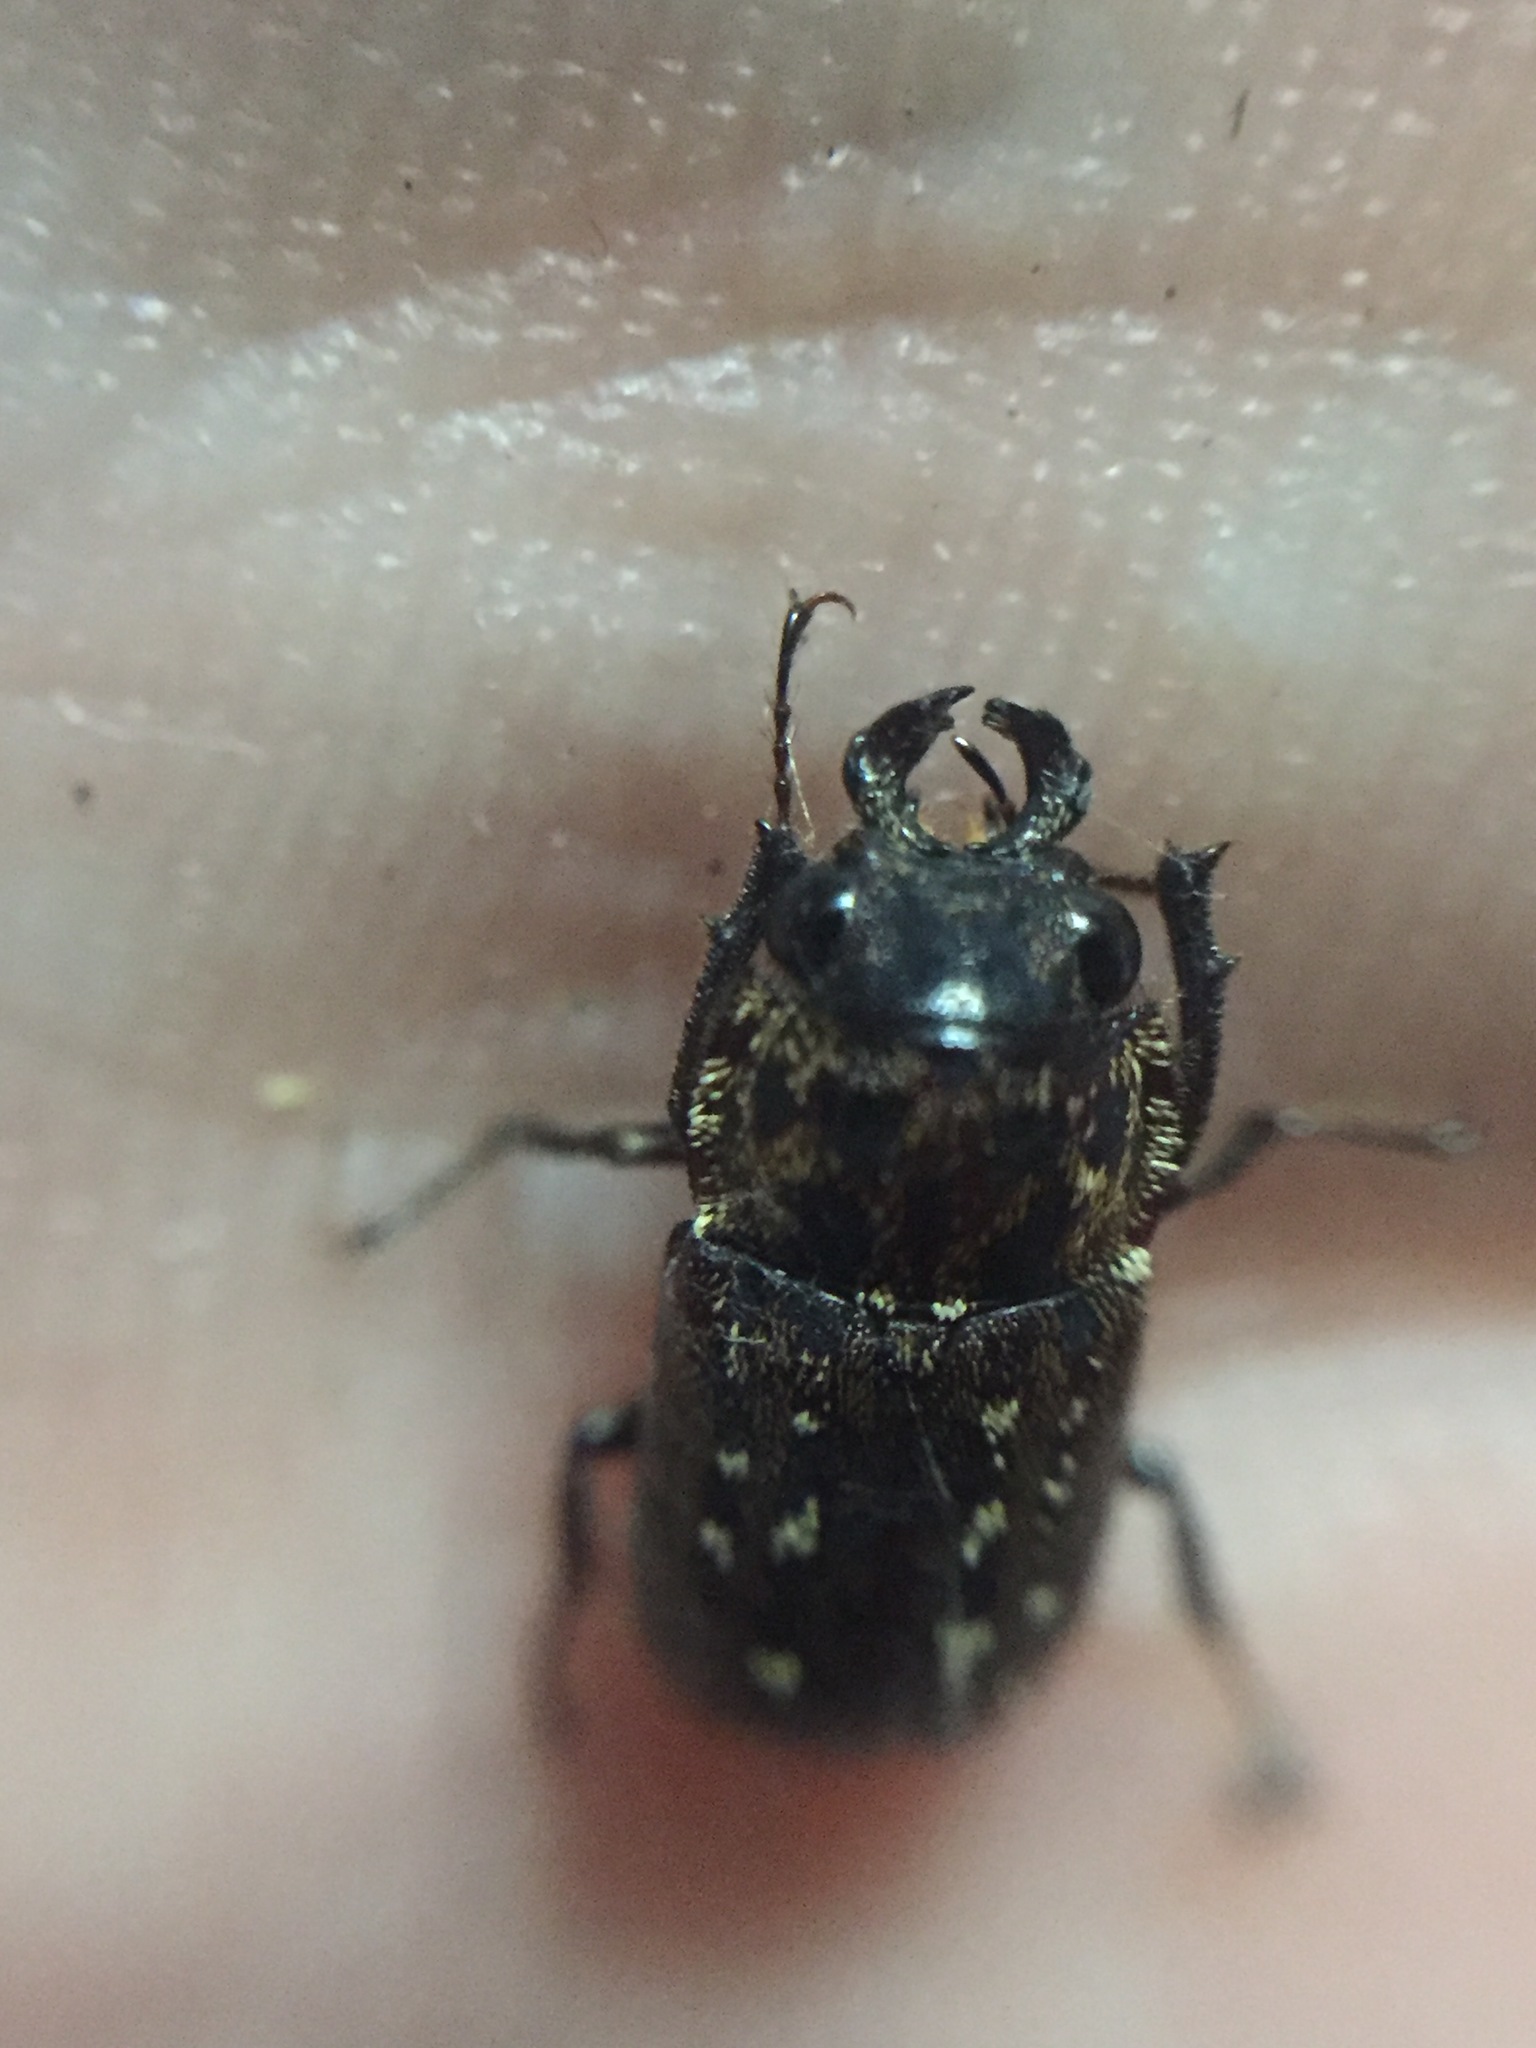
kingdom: Animalia
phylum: Arthropoda
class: Insecta
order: Coleoptera
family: Lucanidae
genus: Mitophyllus
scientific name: Mitophyllus arcuatus
